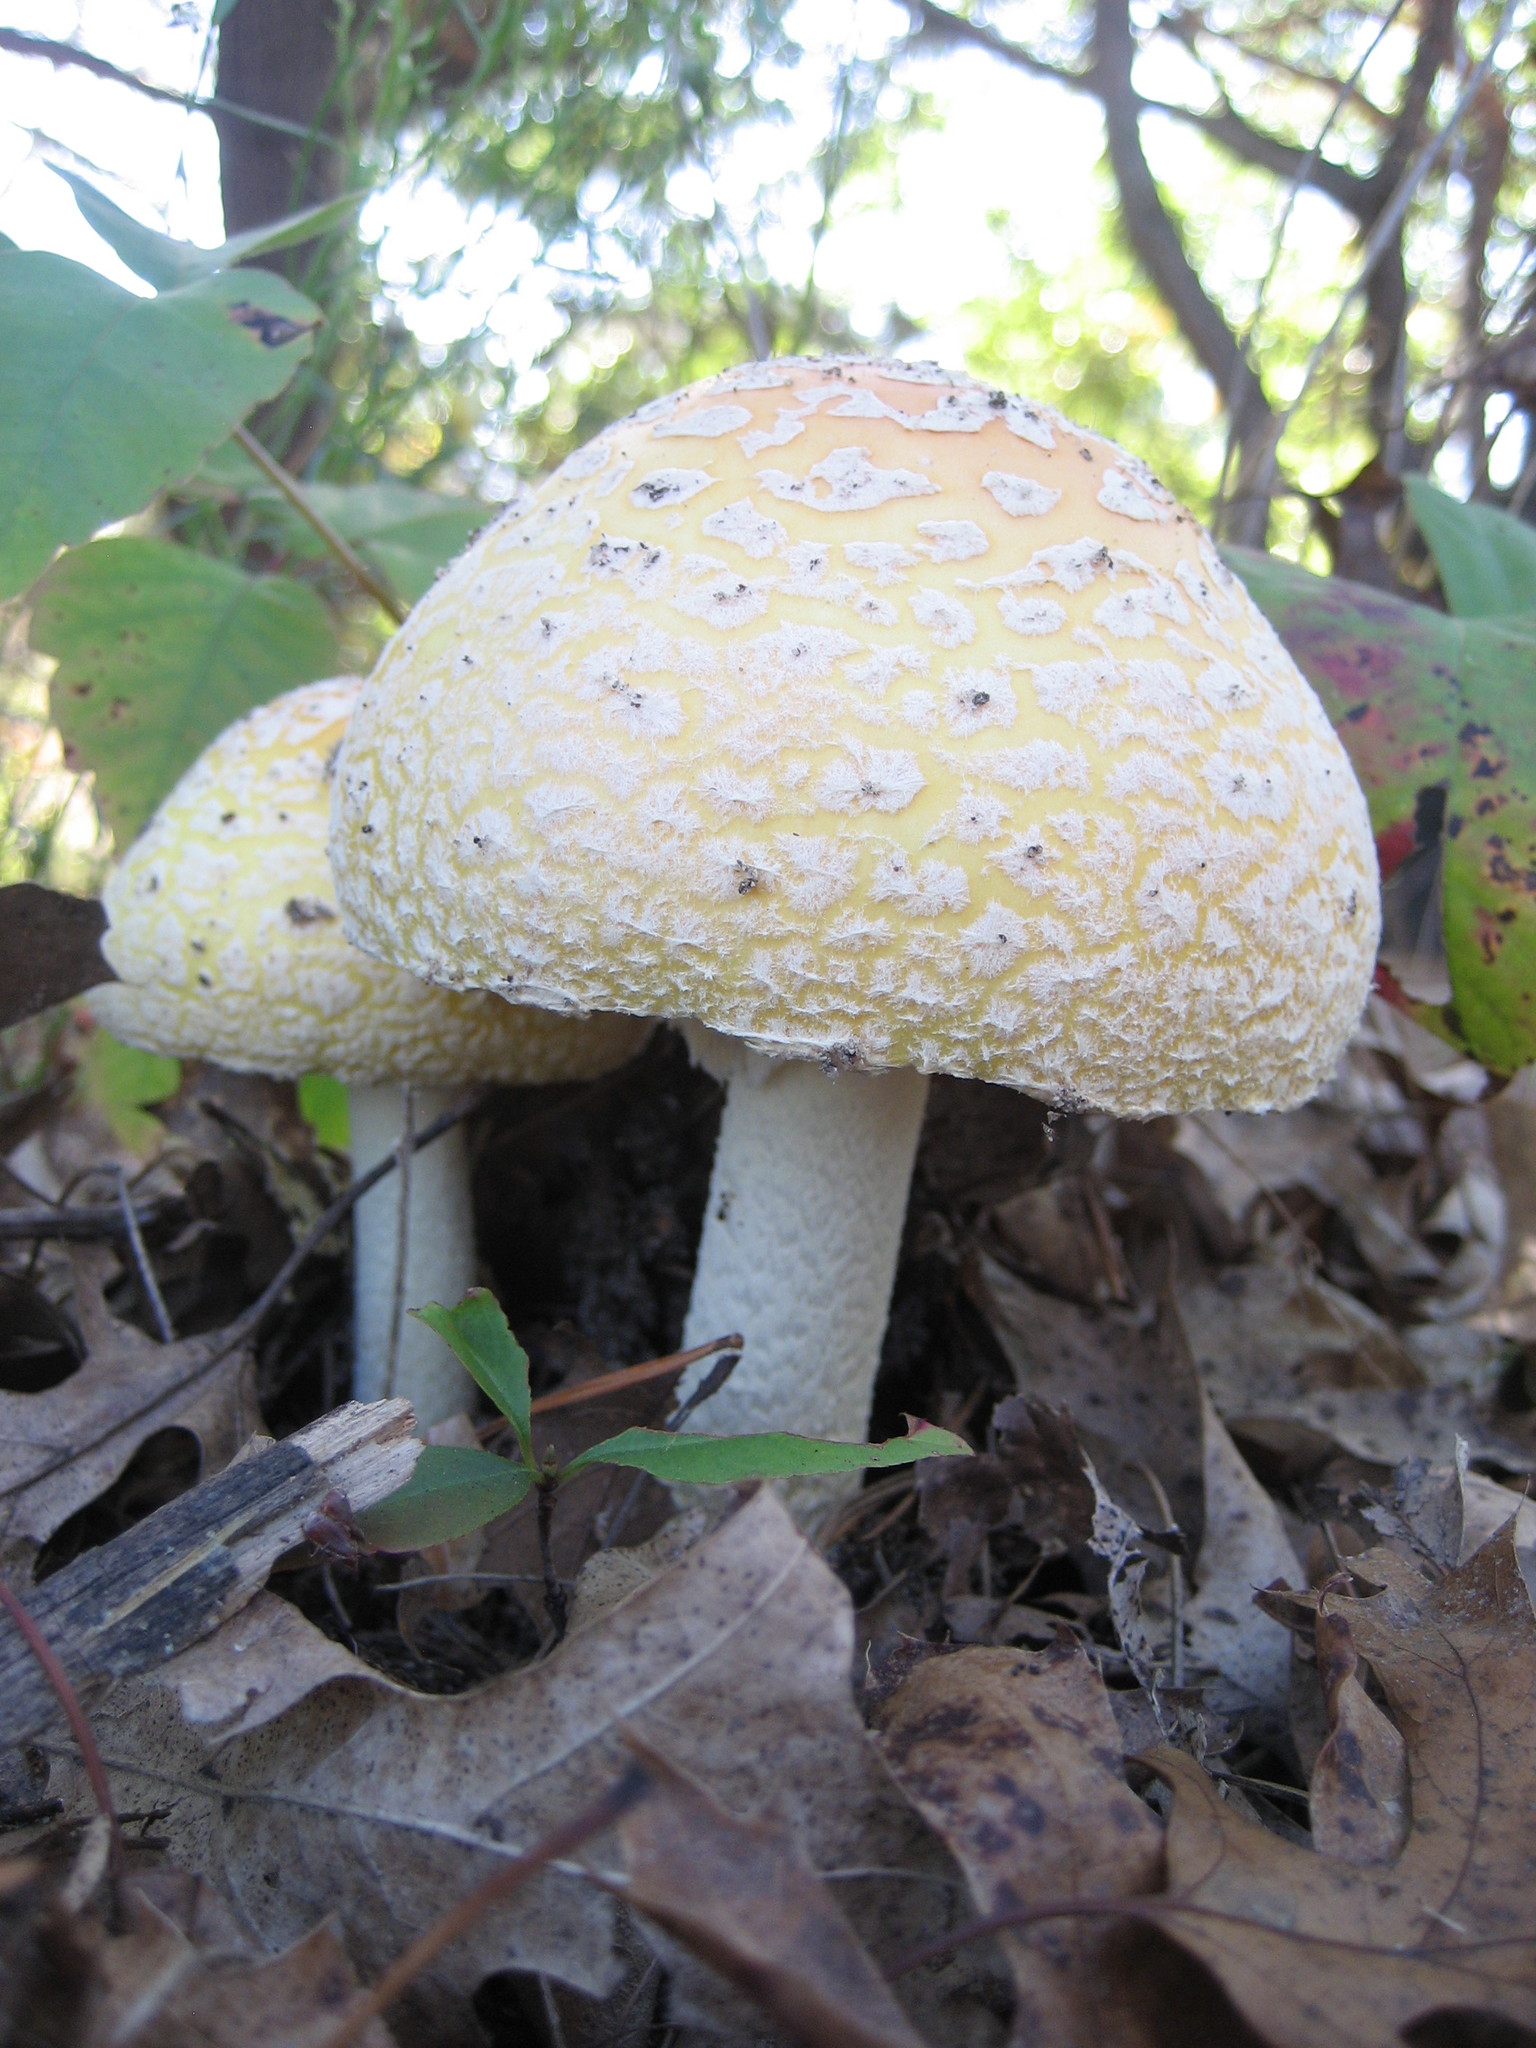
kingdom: Fungi
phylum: Basidiomycota
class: Agaricomycetes
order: Agaricales
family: Amanitaceae
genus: Amanita
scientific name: Amanita muscaria
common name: Fly agaric
